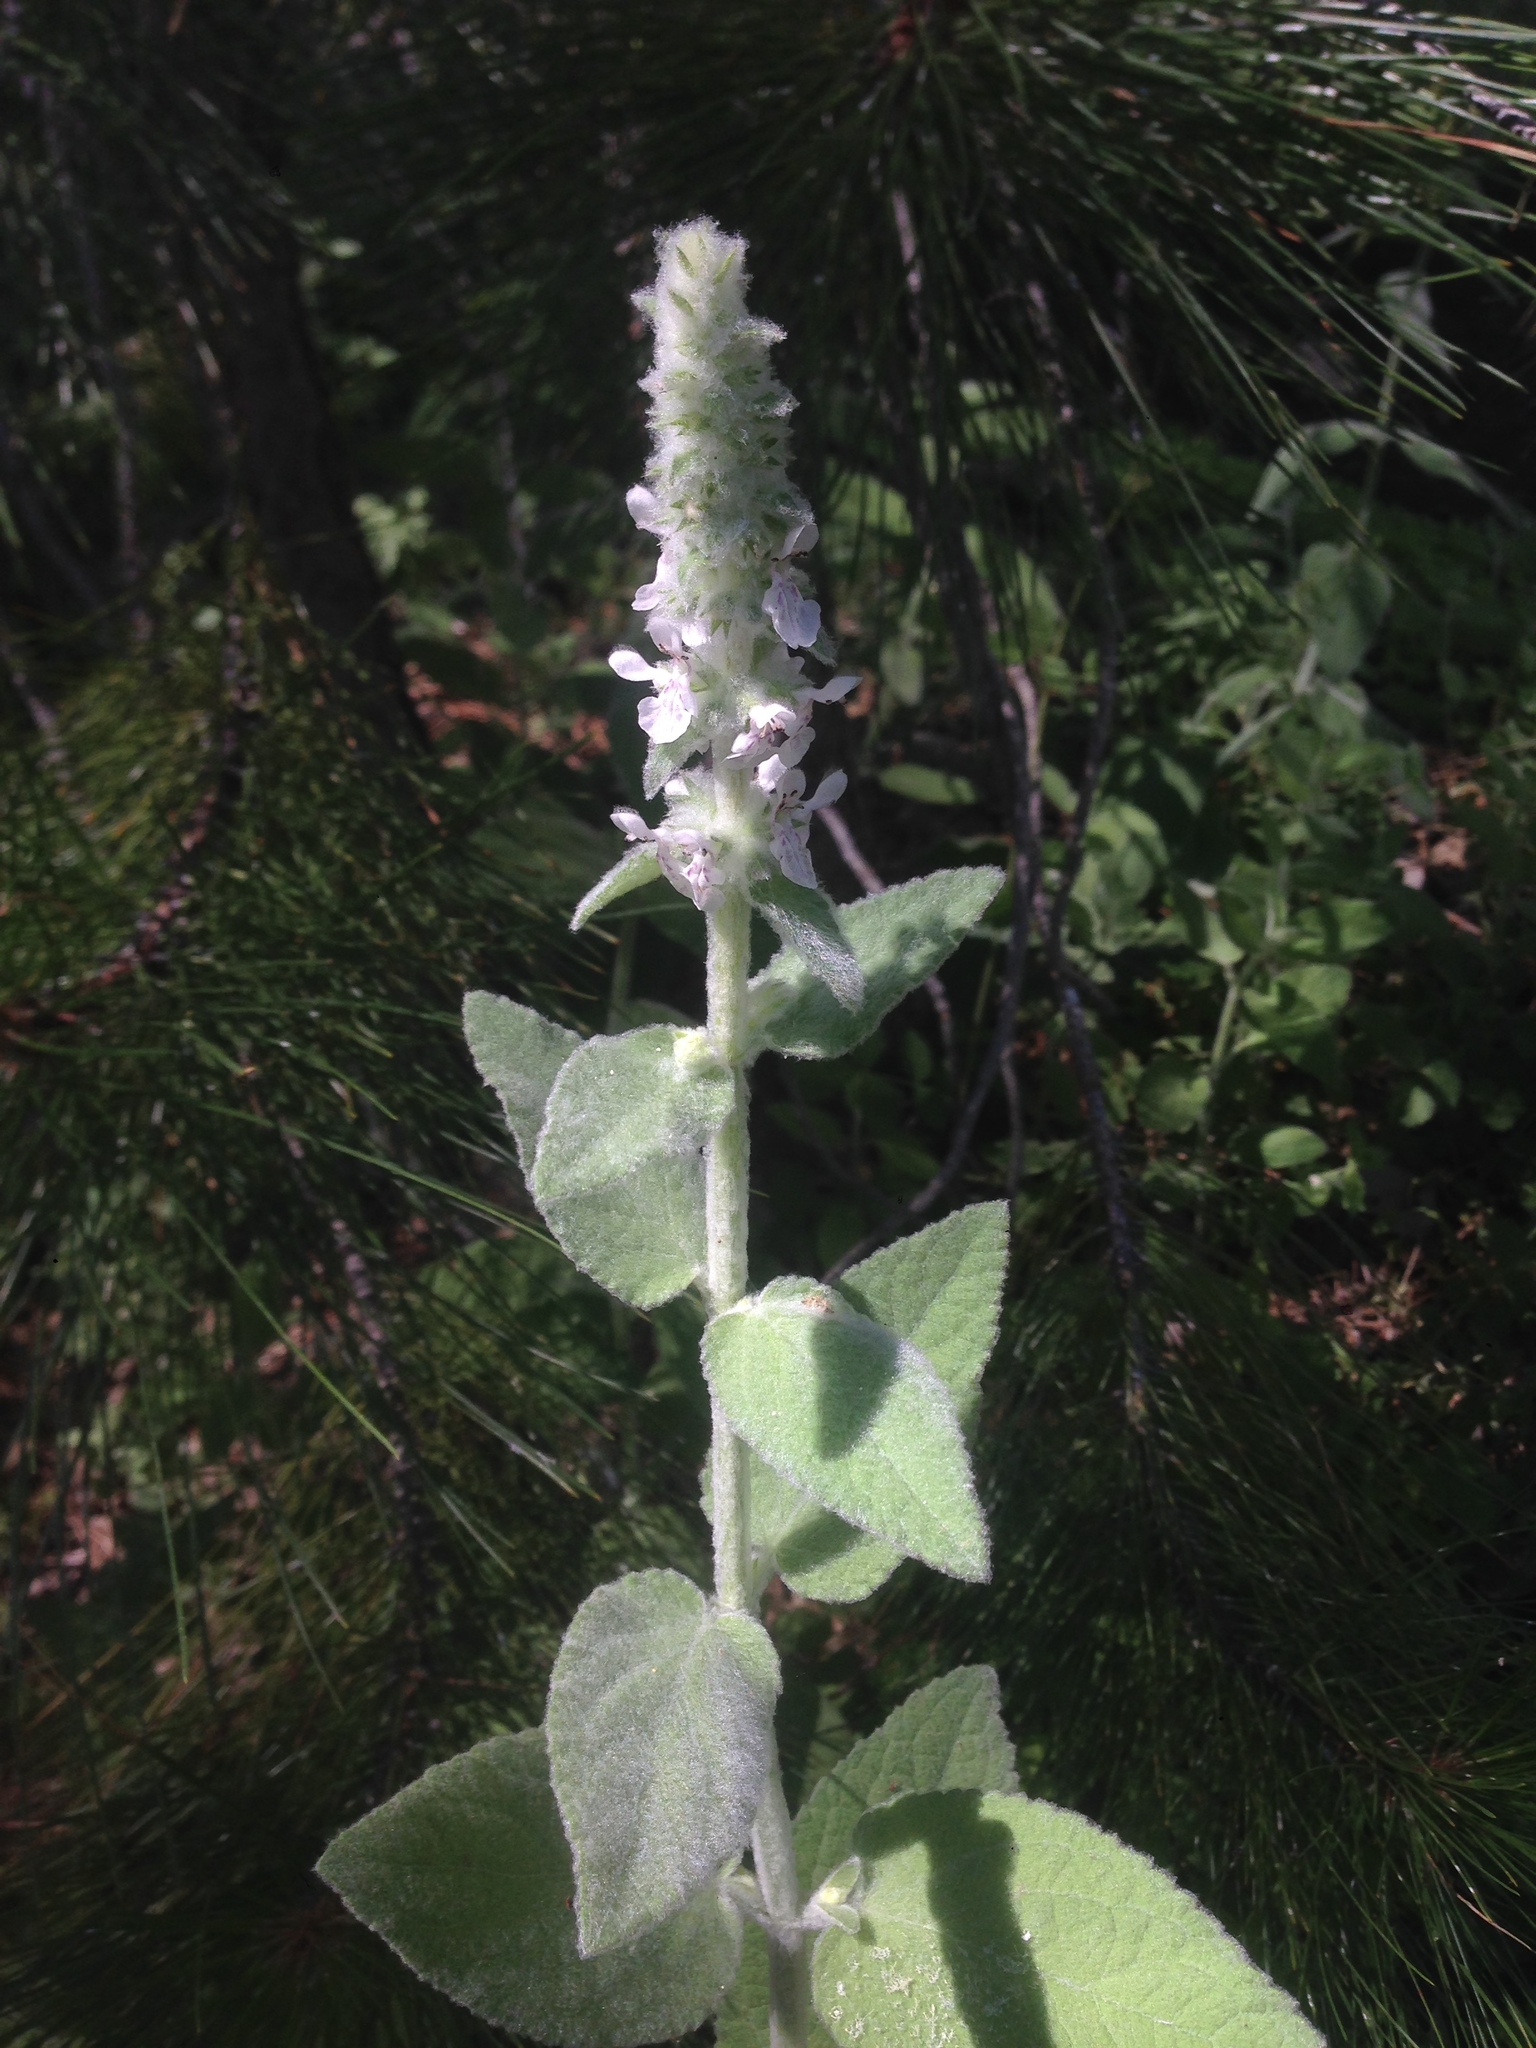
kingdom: Plantae
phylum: Tracheophyta
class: Magnoliopsida
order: Lamiales
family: Lamiaceae
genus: Stachys
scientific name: Stachys albens
